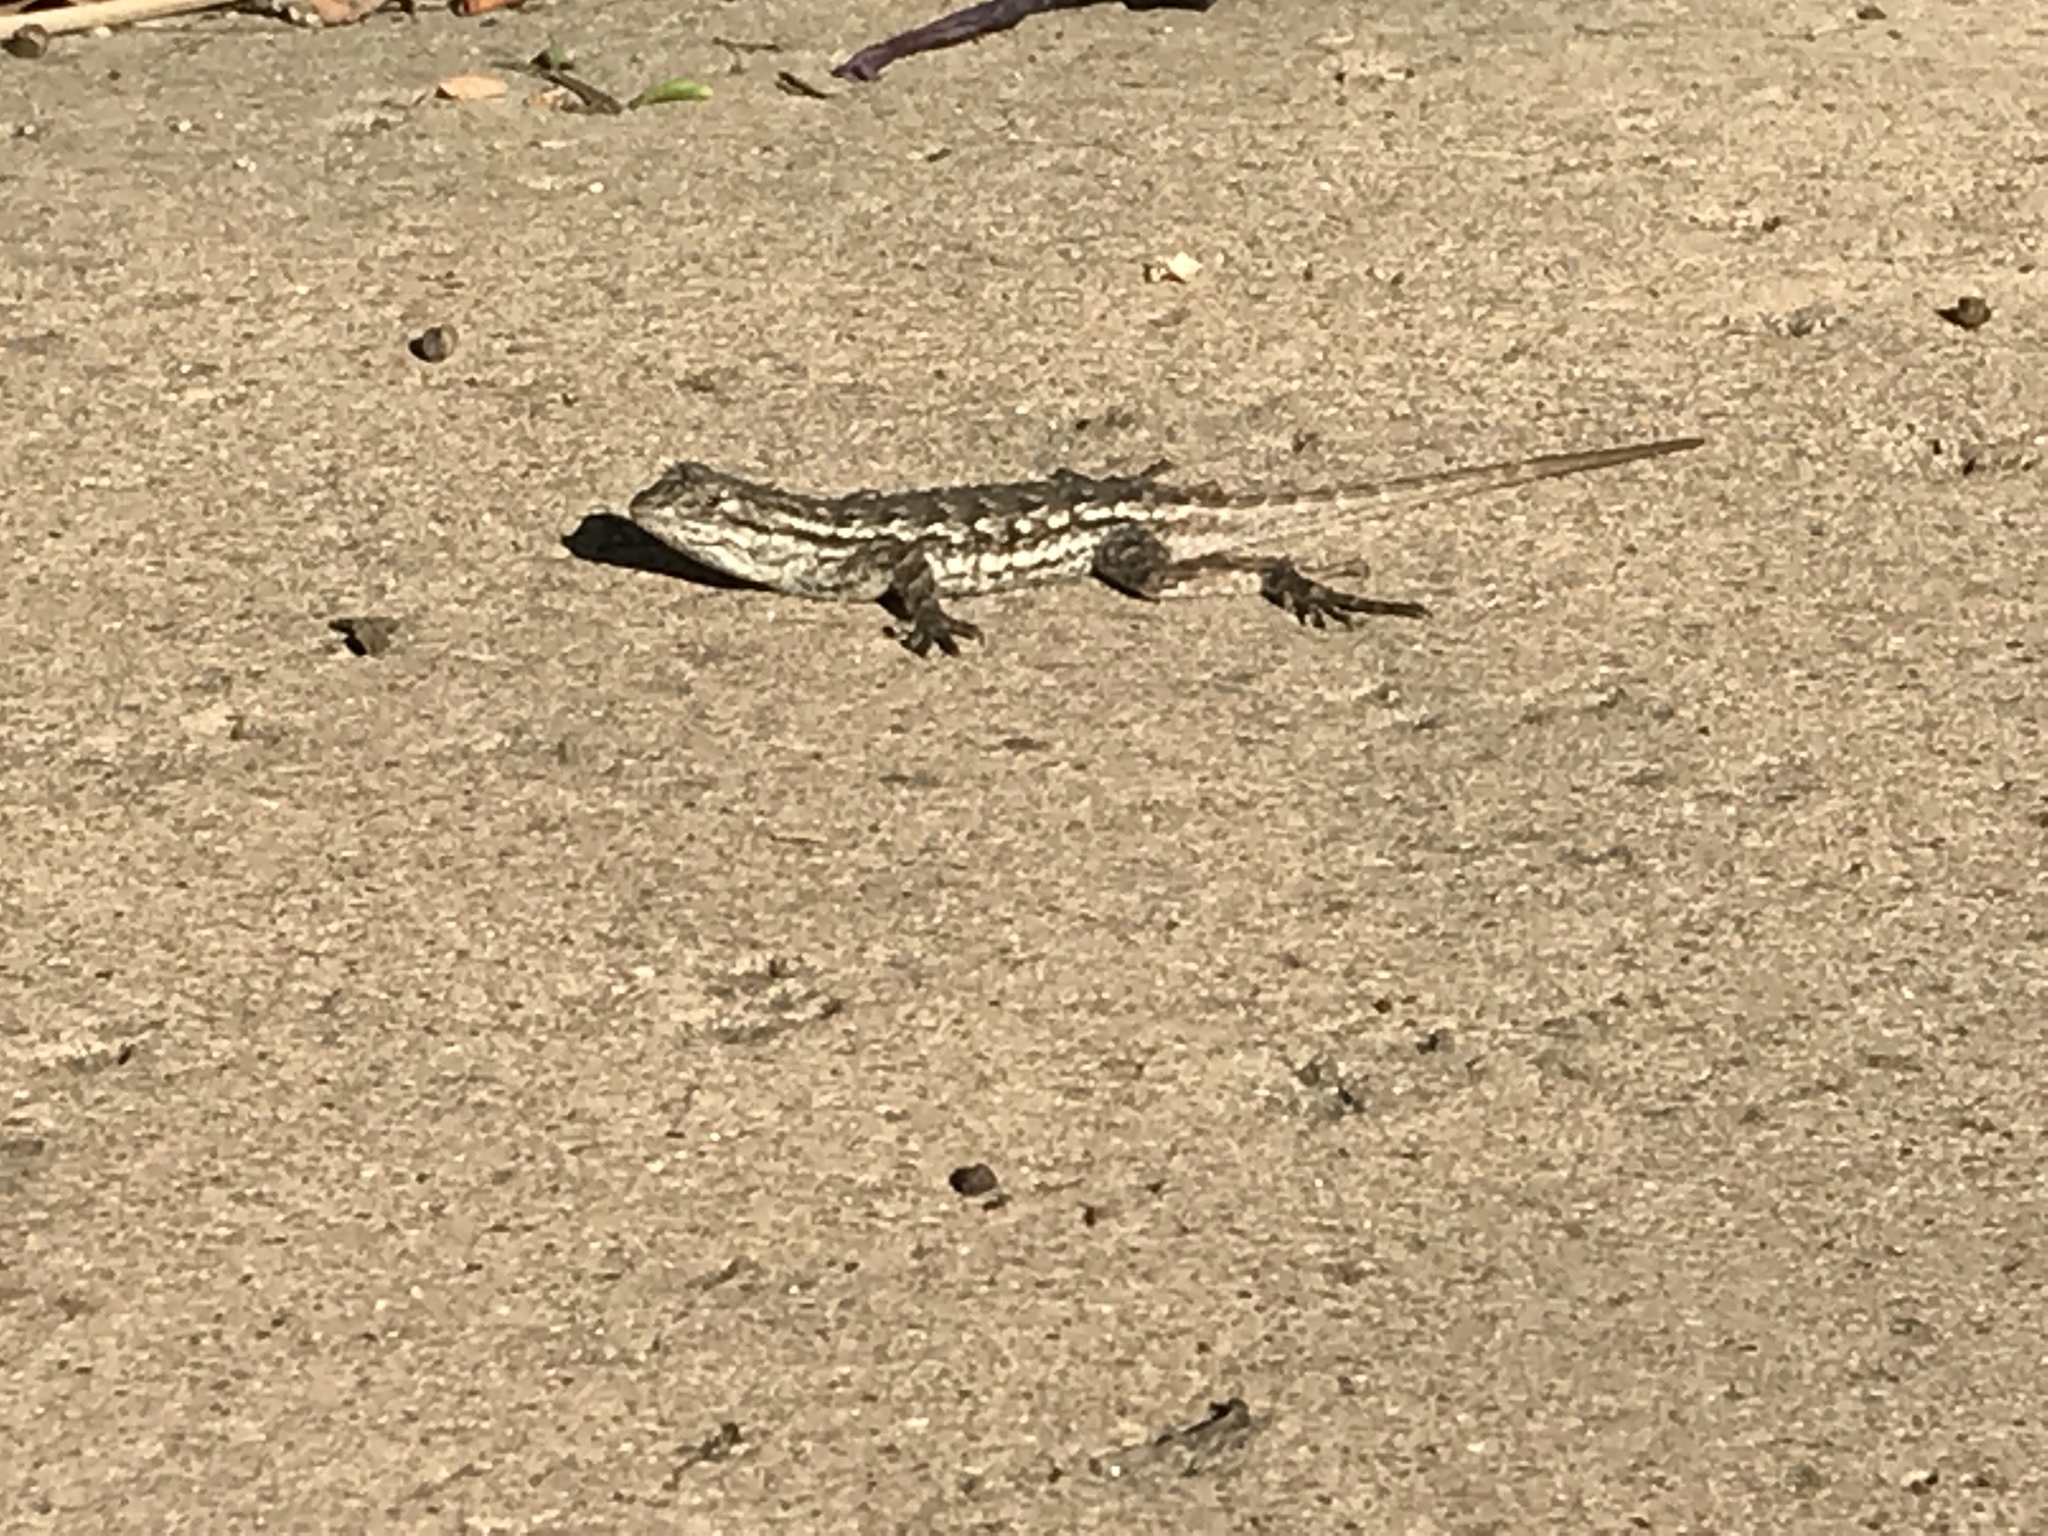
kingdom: Animalia
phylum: Chordata
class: Squamata
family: Phrynosomatidae
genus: Sceloporus
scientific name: Sceloporus occidentalis
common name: Western fence lizard
